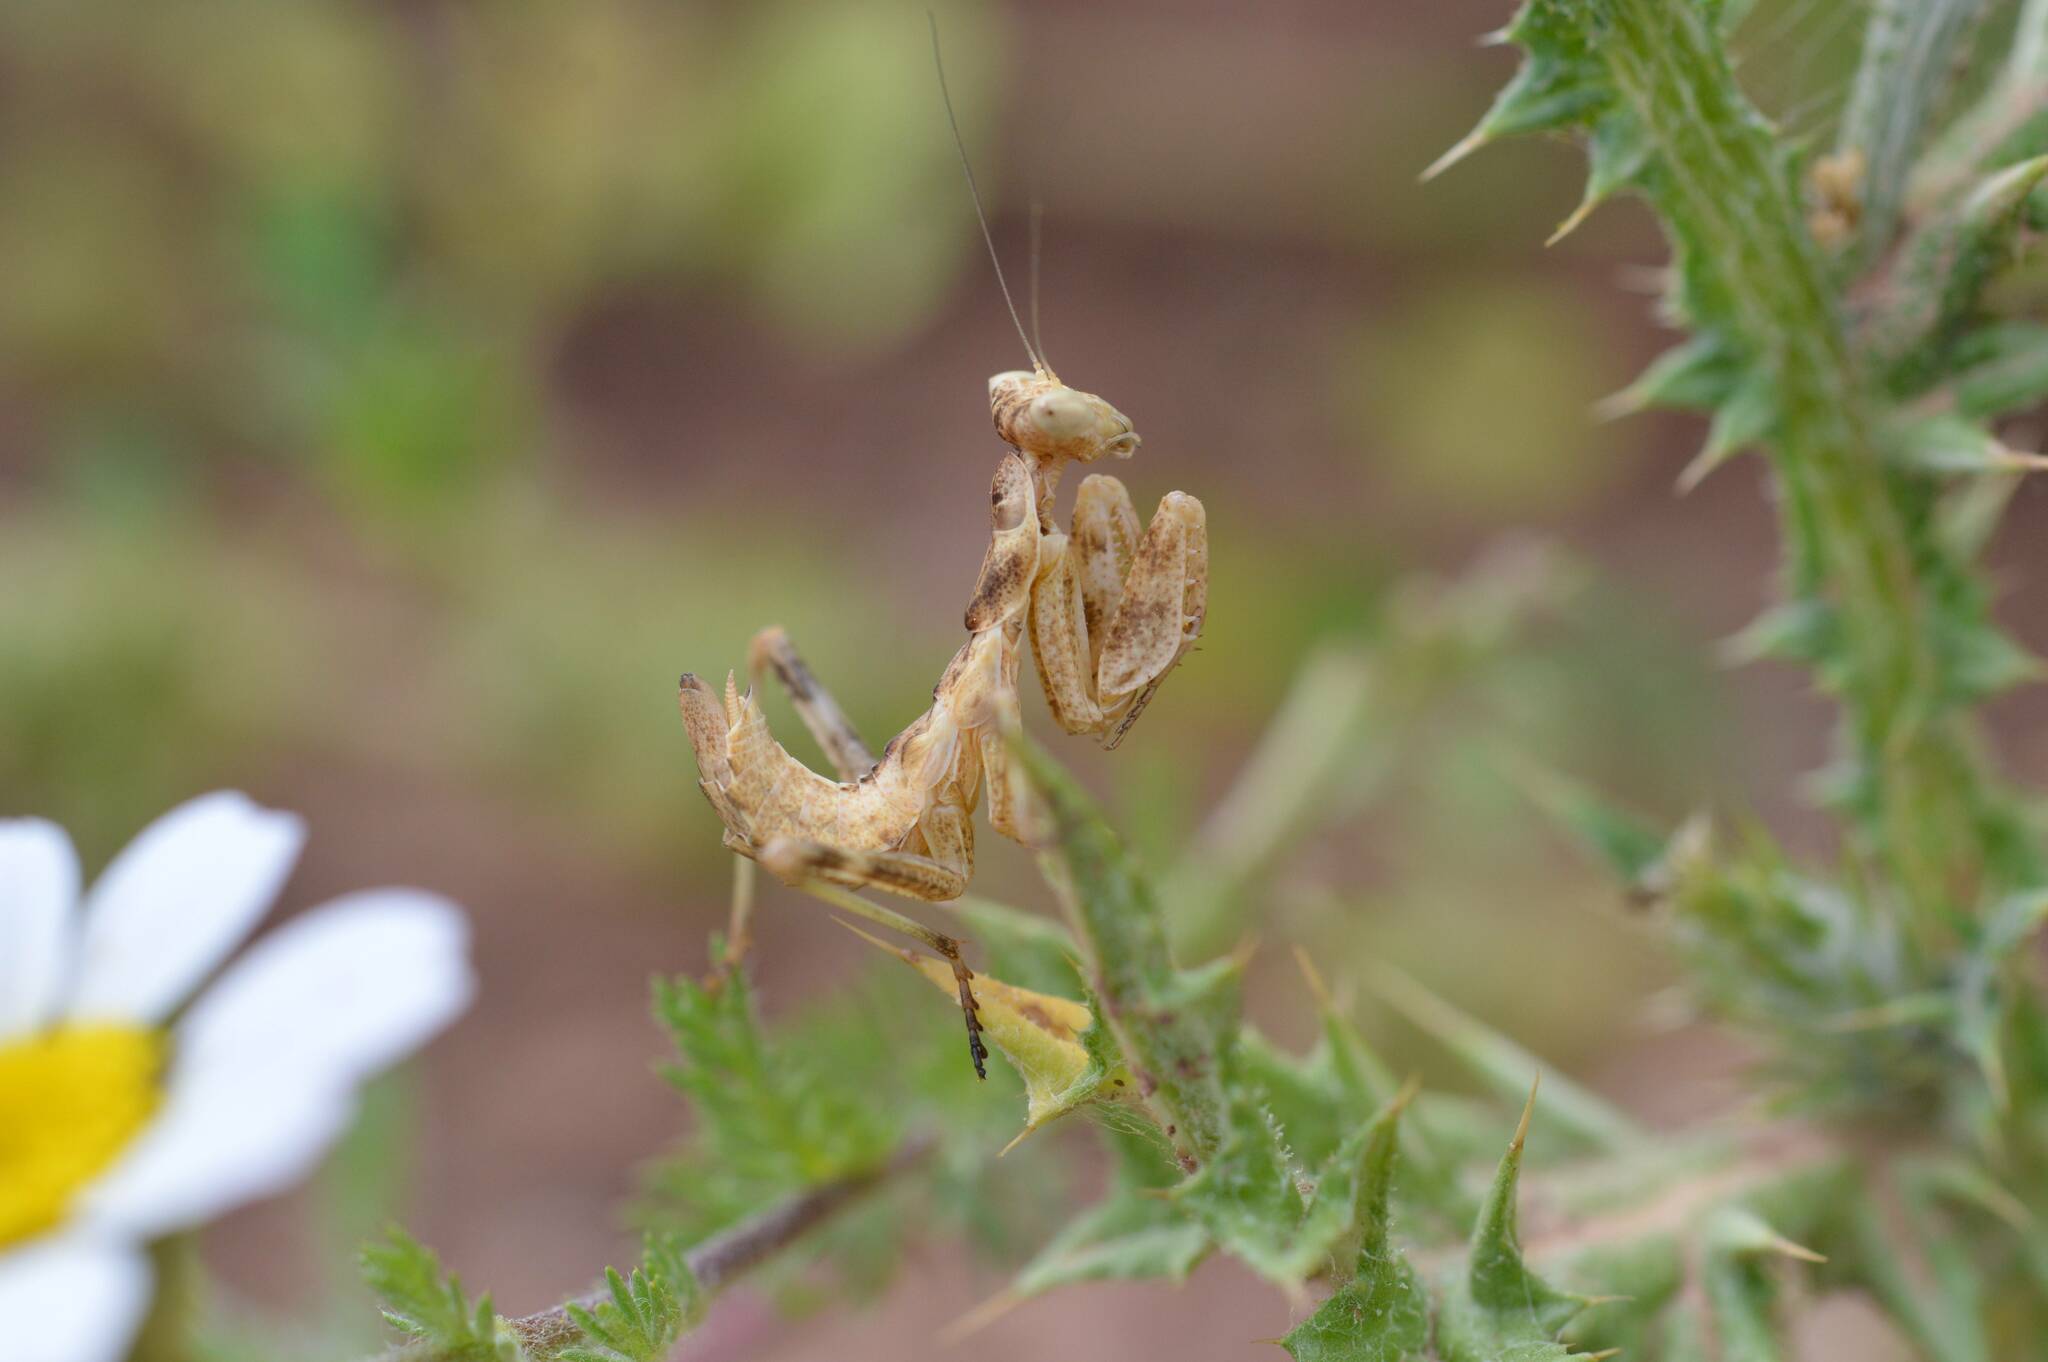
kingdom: Animalia
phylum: Arthropoda
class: Insecta
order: Mantodea
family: Amelidae
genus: Ameles
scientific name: Ameles spallanzania
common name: European dwarf mantis
